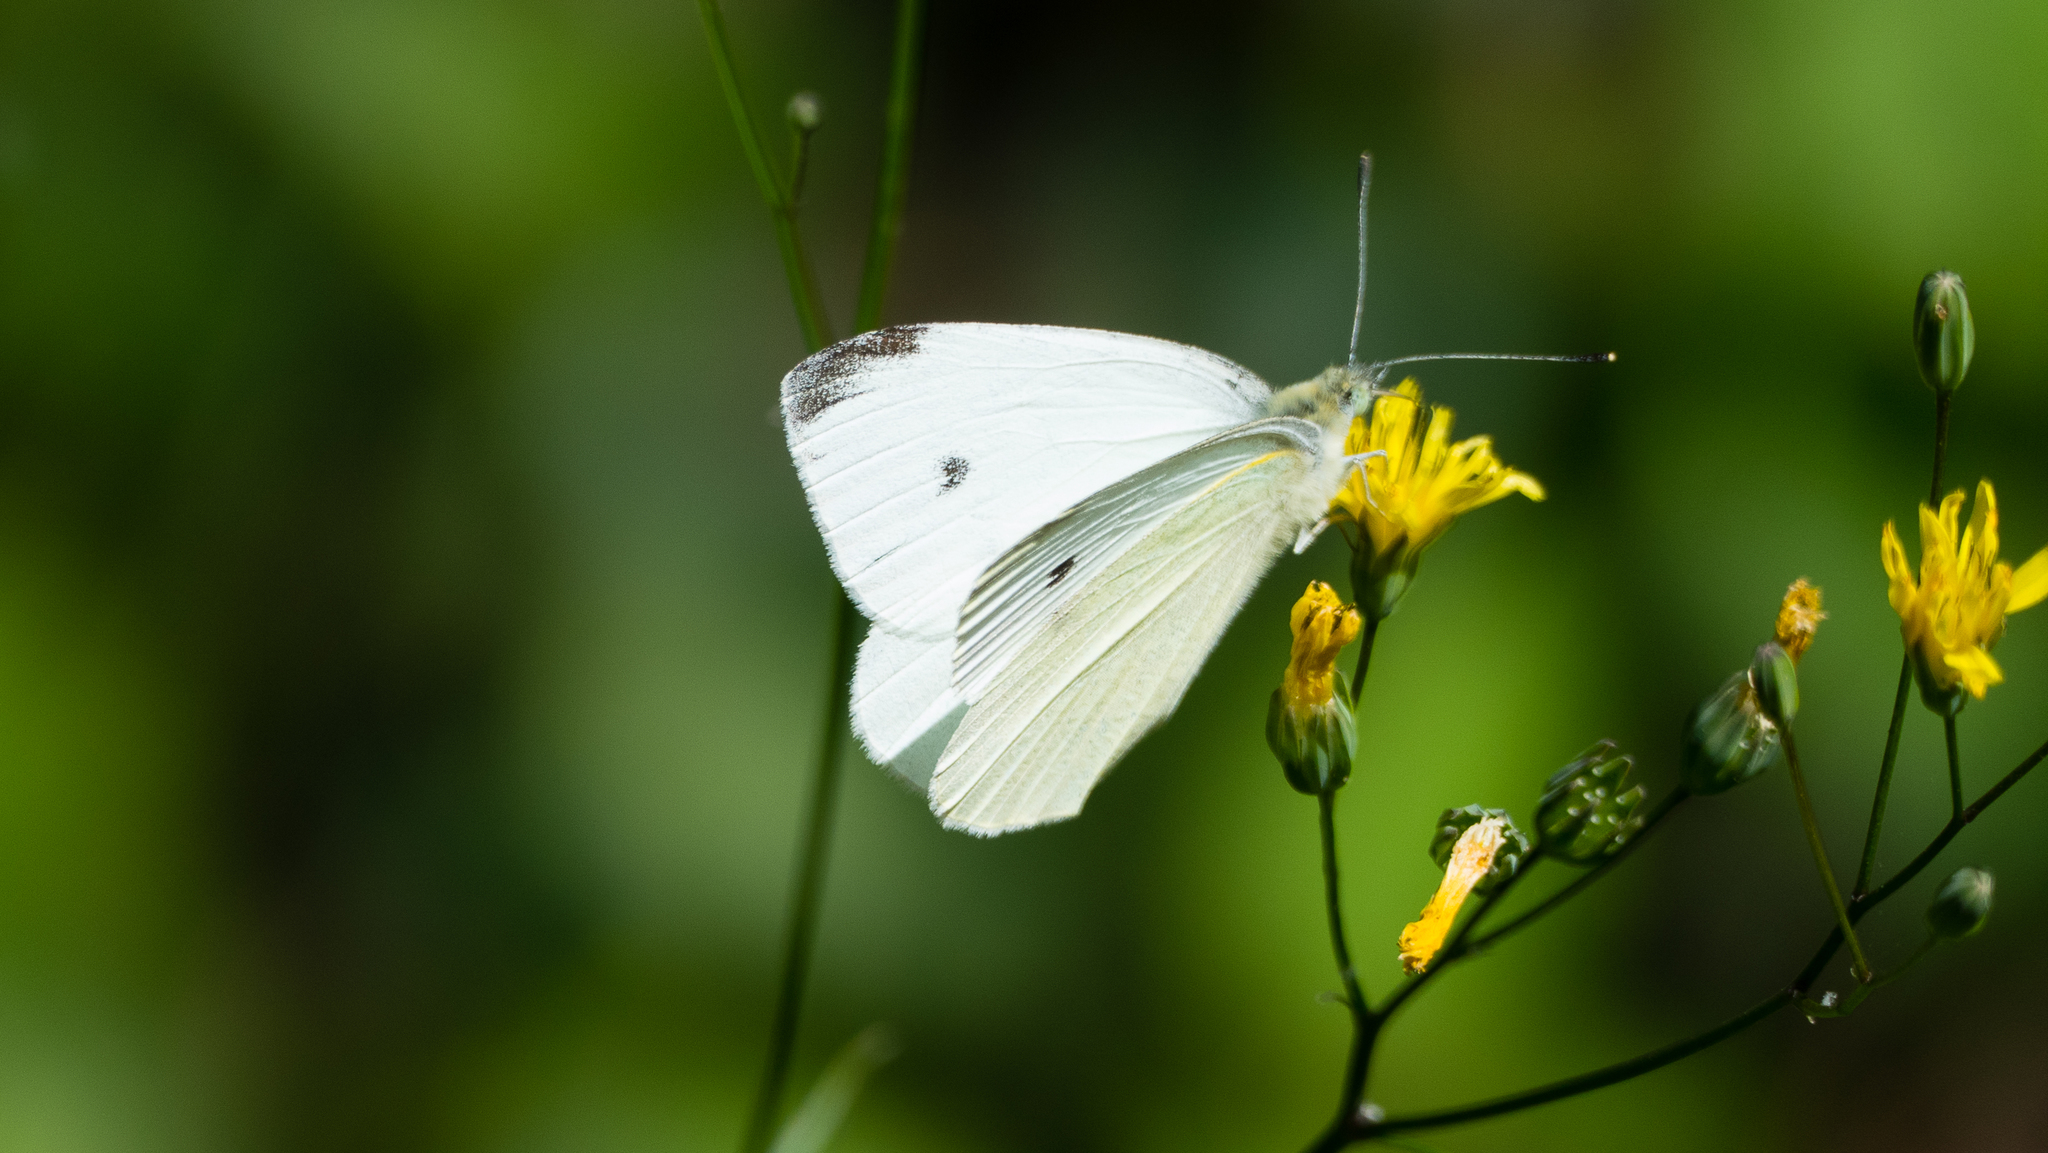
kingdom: Animalia
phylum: Arthropoda
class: Insecta
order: Lepidoptera
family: Pieridae
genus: Pieris
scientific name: Pieris rapae
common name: Small white
